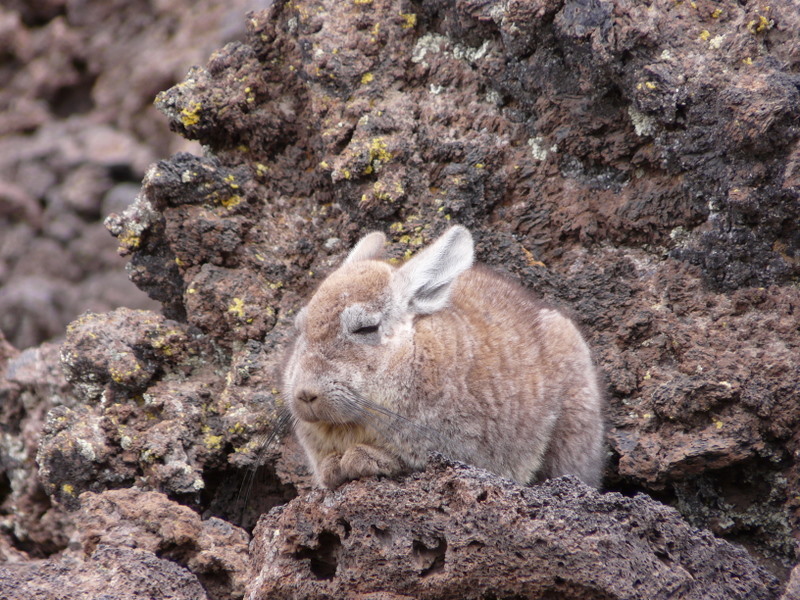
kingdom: Animalia
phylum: Chordata
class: Mammalia
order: Rodentia
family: Chinchillidae
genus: Lagidium
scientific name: Lagidium viscacia
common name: Southern viscacha
